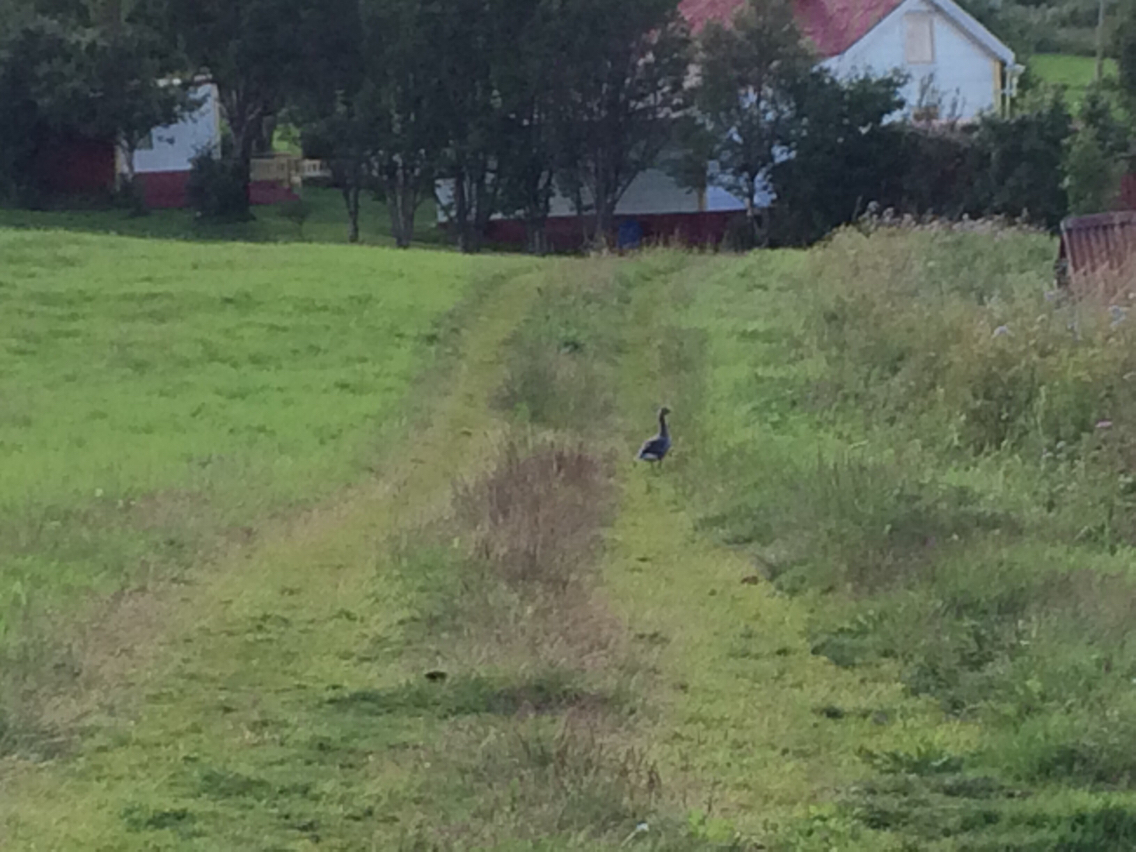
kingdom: Animalia
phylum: Chordata
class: Aves
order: Anseriformes
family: Anatidae
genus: Anser
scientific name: Anser anser
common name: Greylag goose
